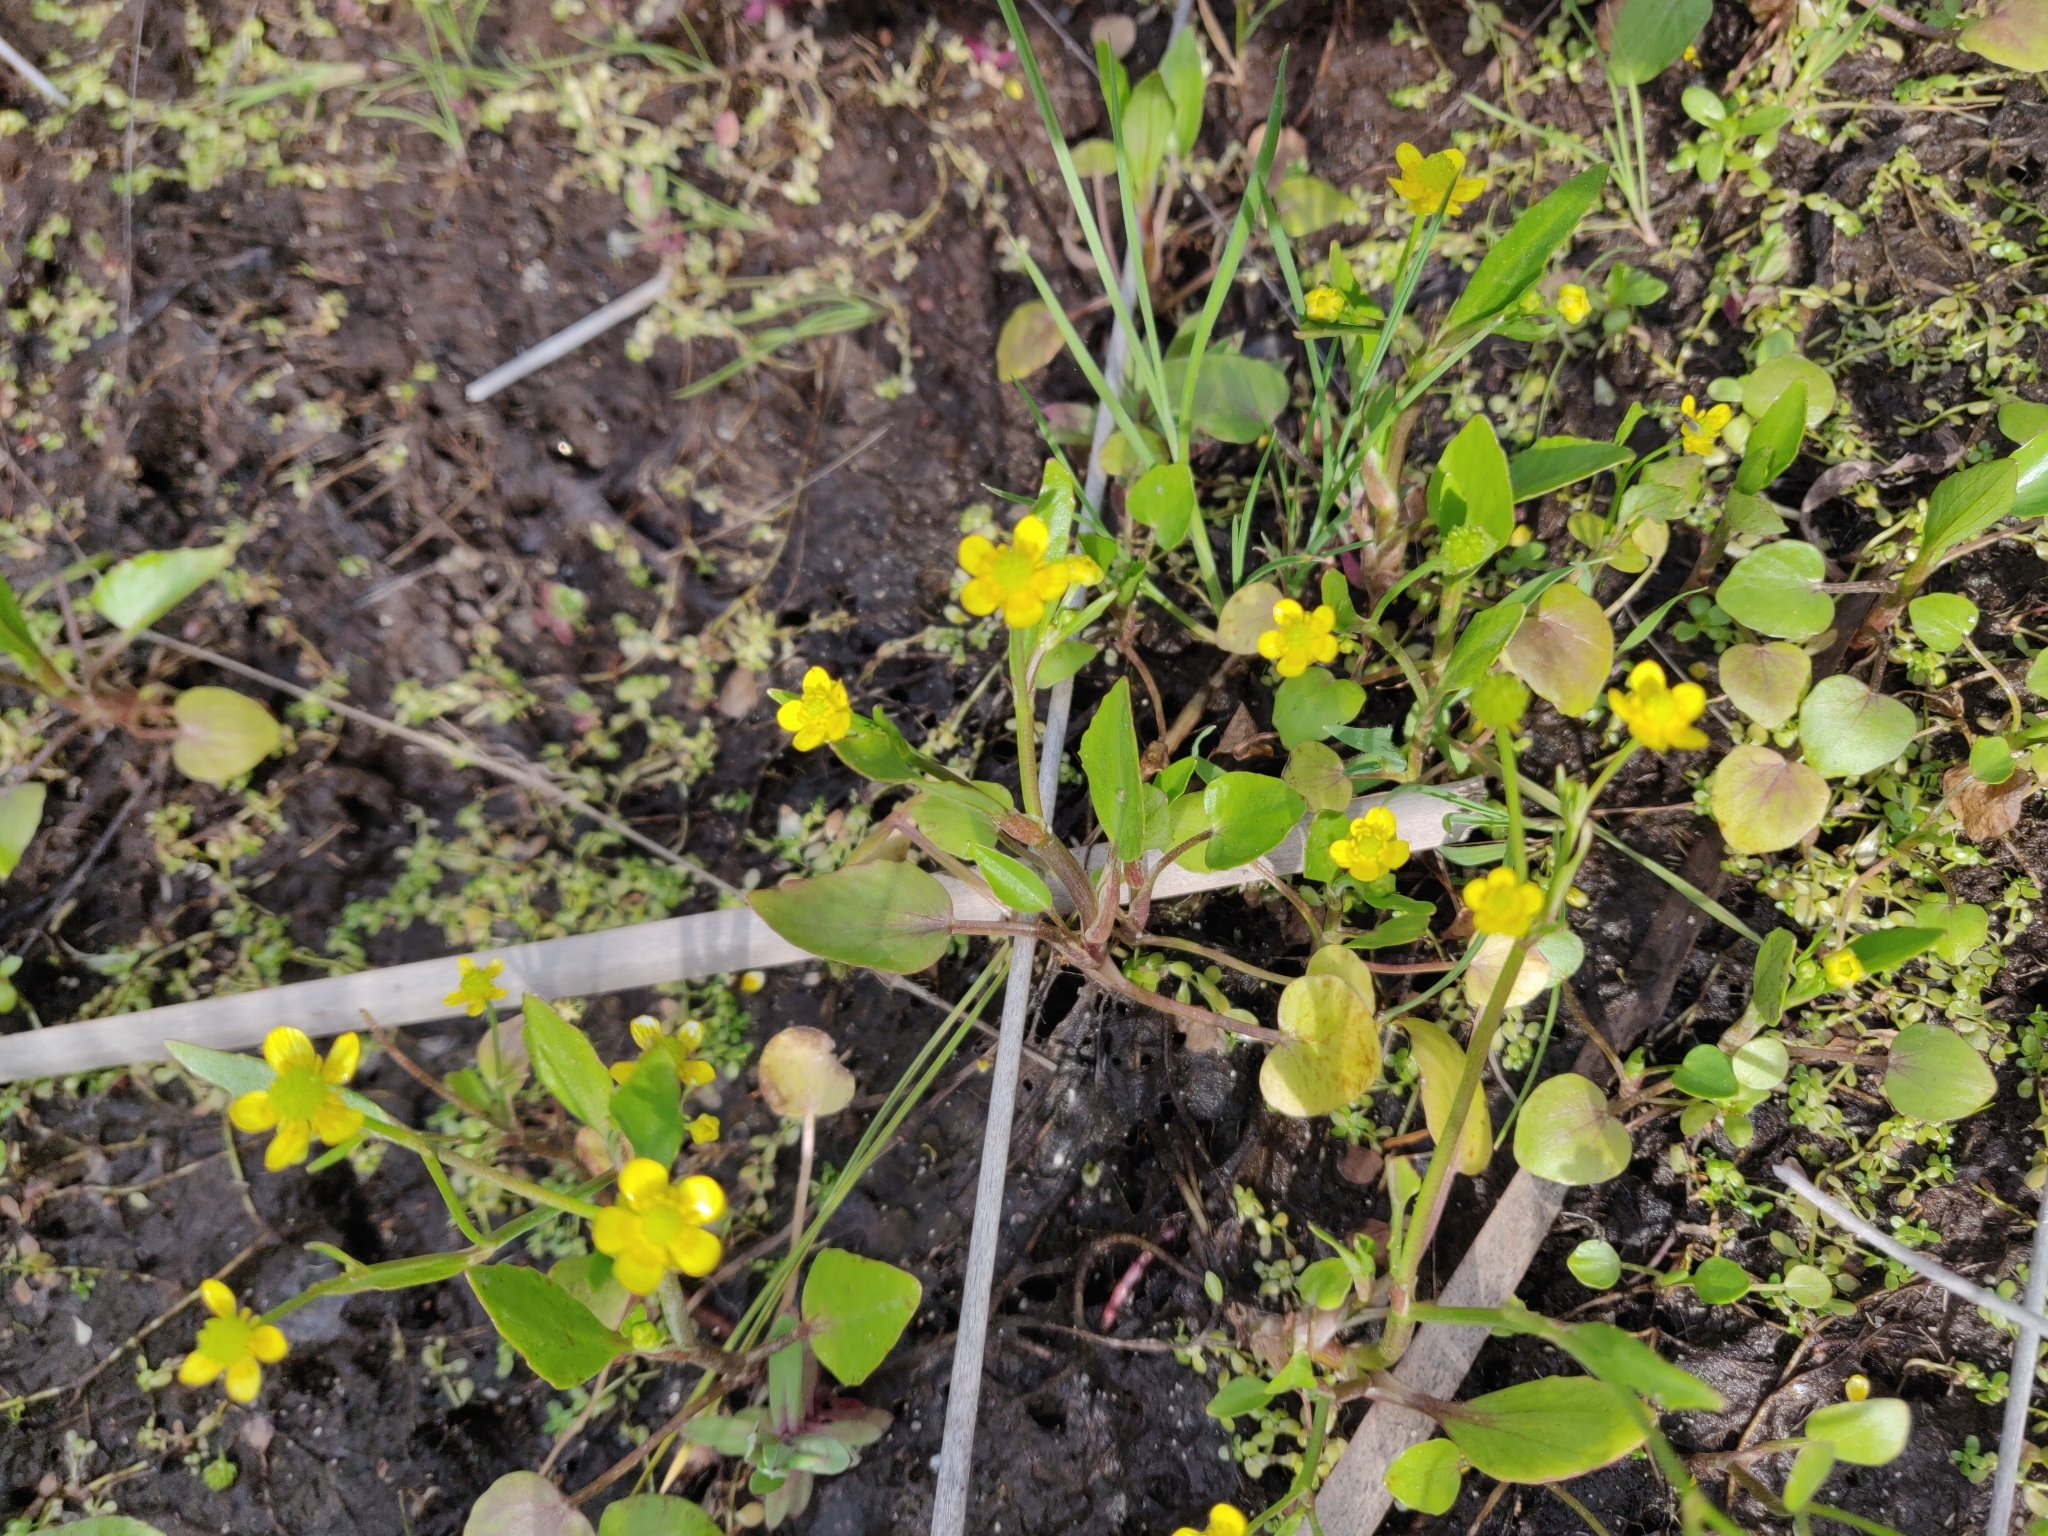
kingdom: Plantae
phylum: Tracheophyta
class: Magnoliopsida
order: Ranunculales
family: Ranunculaceae
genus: Ranunculus
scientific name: Ranunculus ophioglossifolius
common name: Adder's-tongue spearwort
